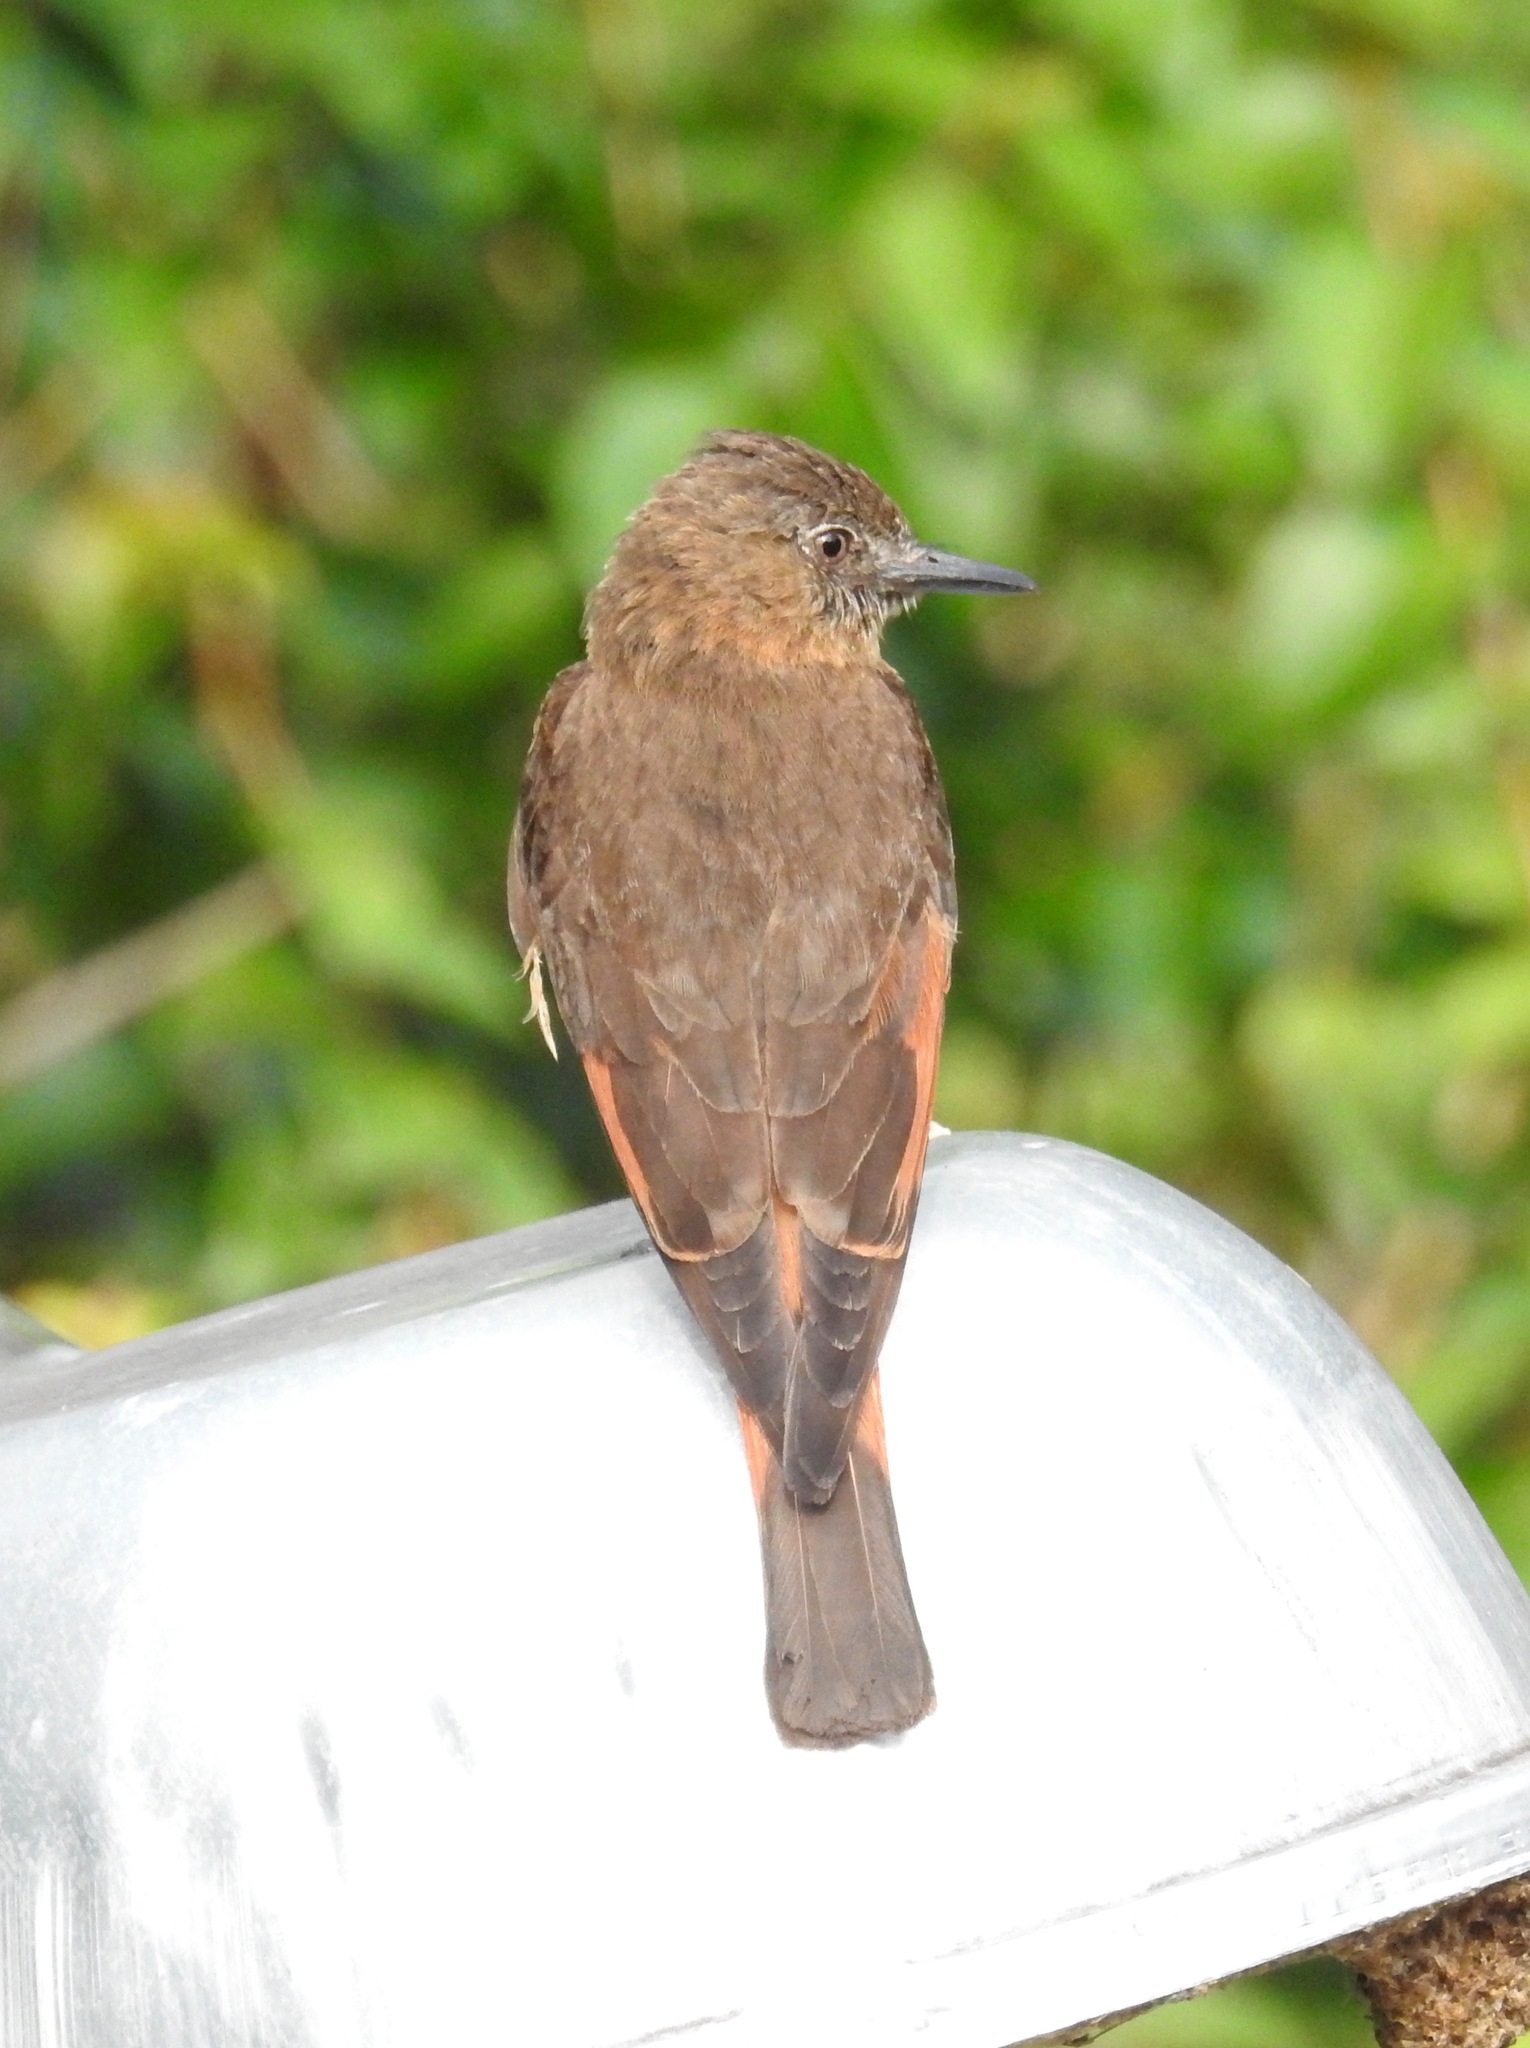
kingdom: Animalia
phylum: Chordata
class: Aves
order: Passeriformes
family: Tyrannidae
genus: Hirundinea
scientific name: Hirundinea ferruginea
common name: Cliff flycatcher
